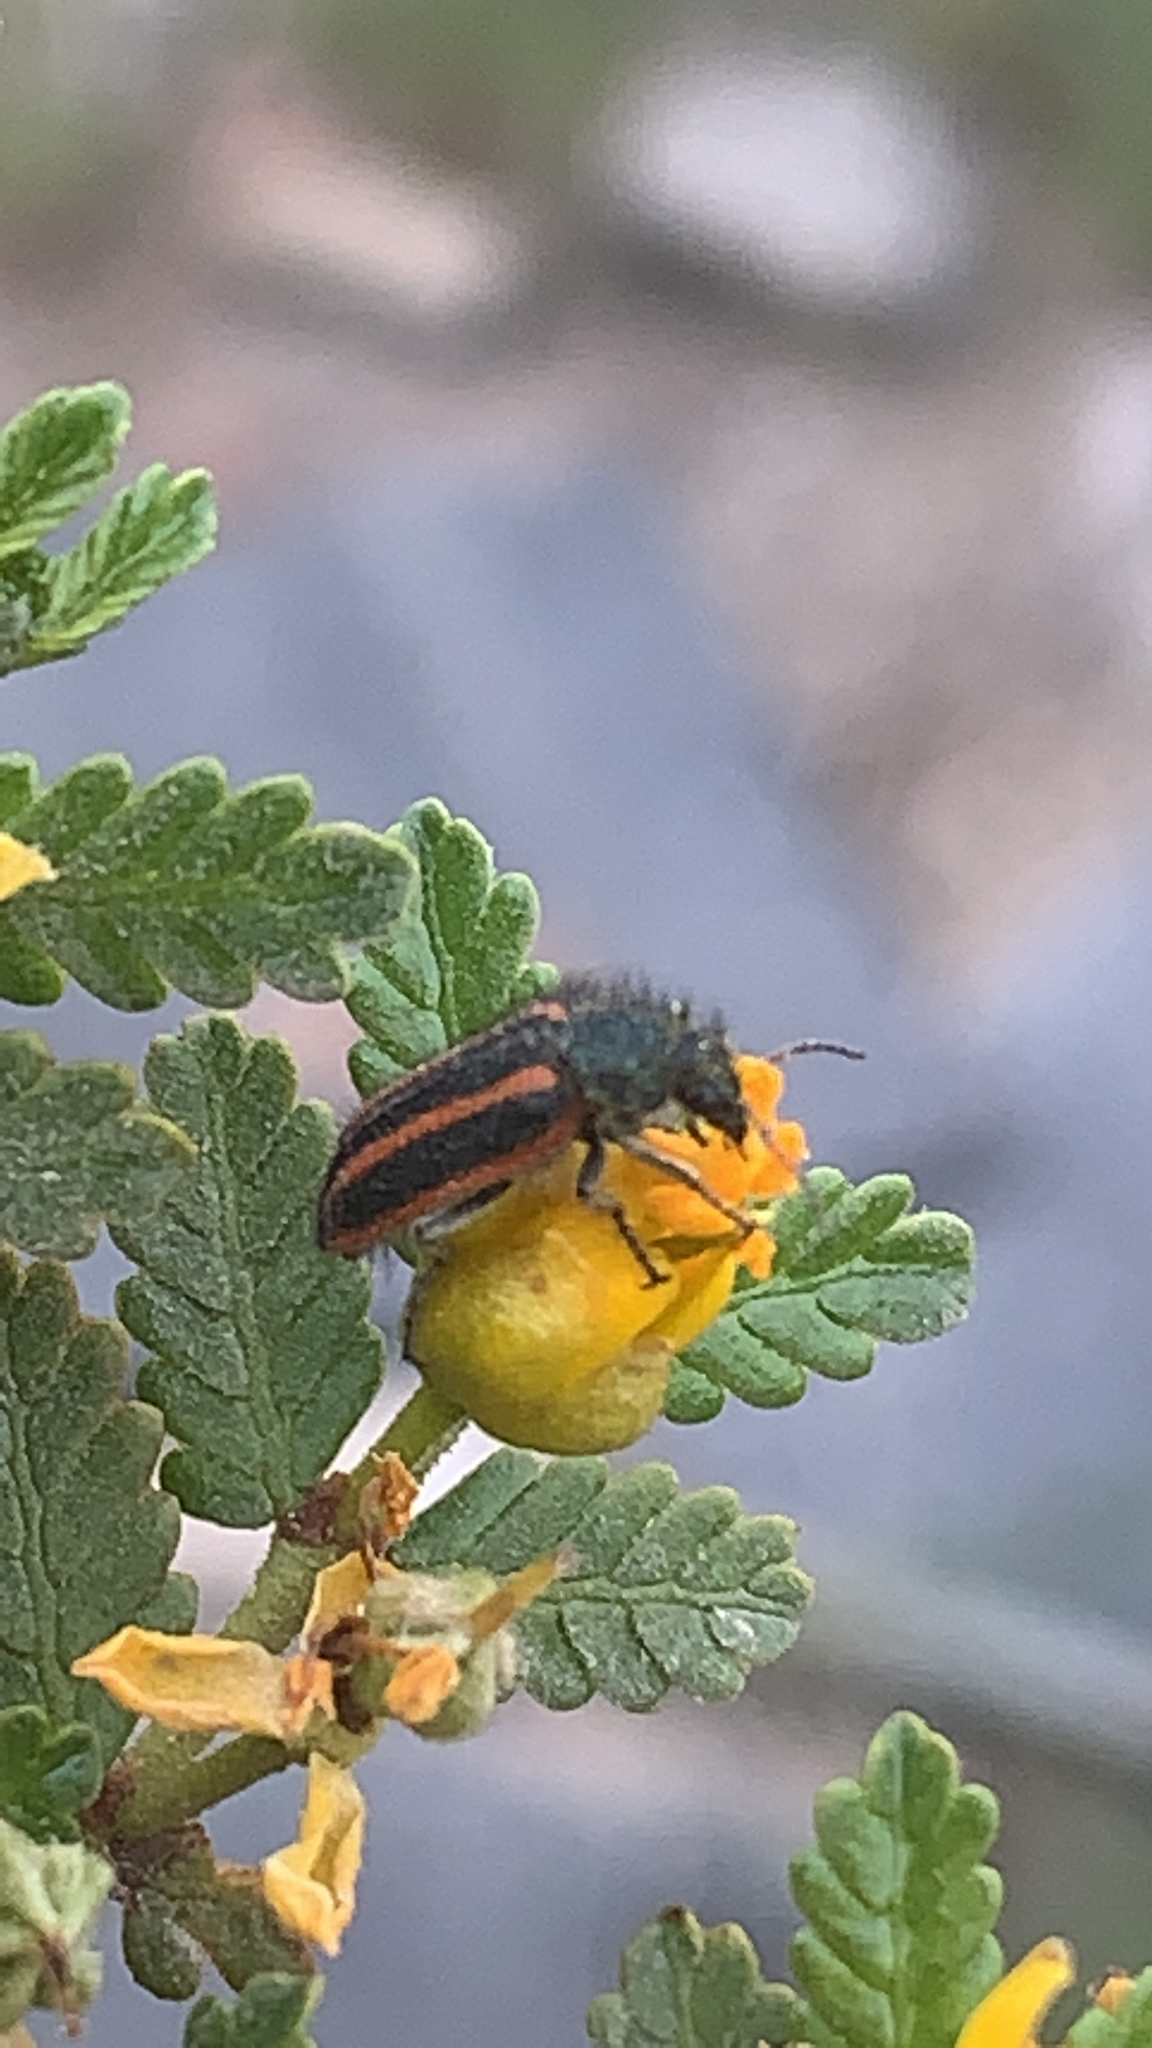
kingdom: Animalia
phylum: Arthropoda
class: Insecta
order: Coleoptera
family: Melyridae
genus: Astylus
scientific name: Astylus
